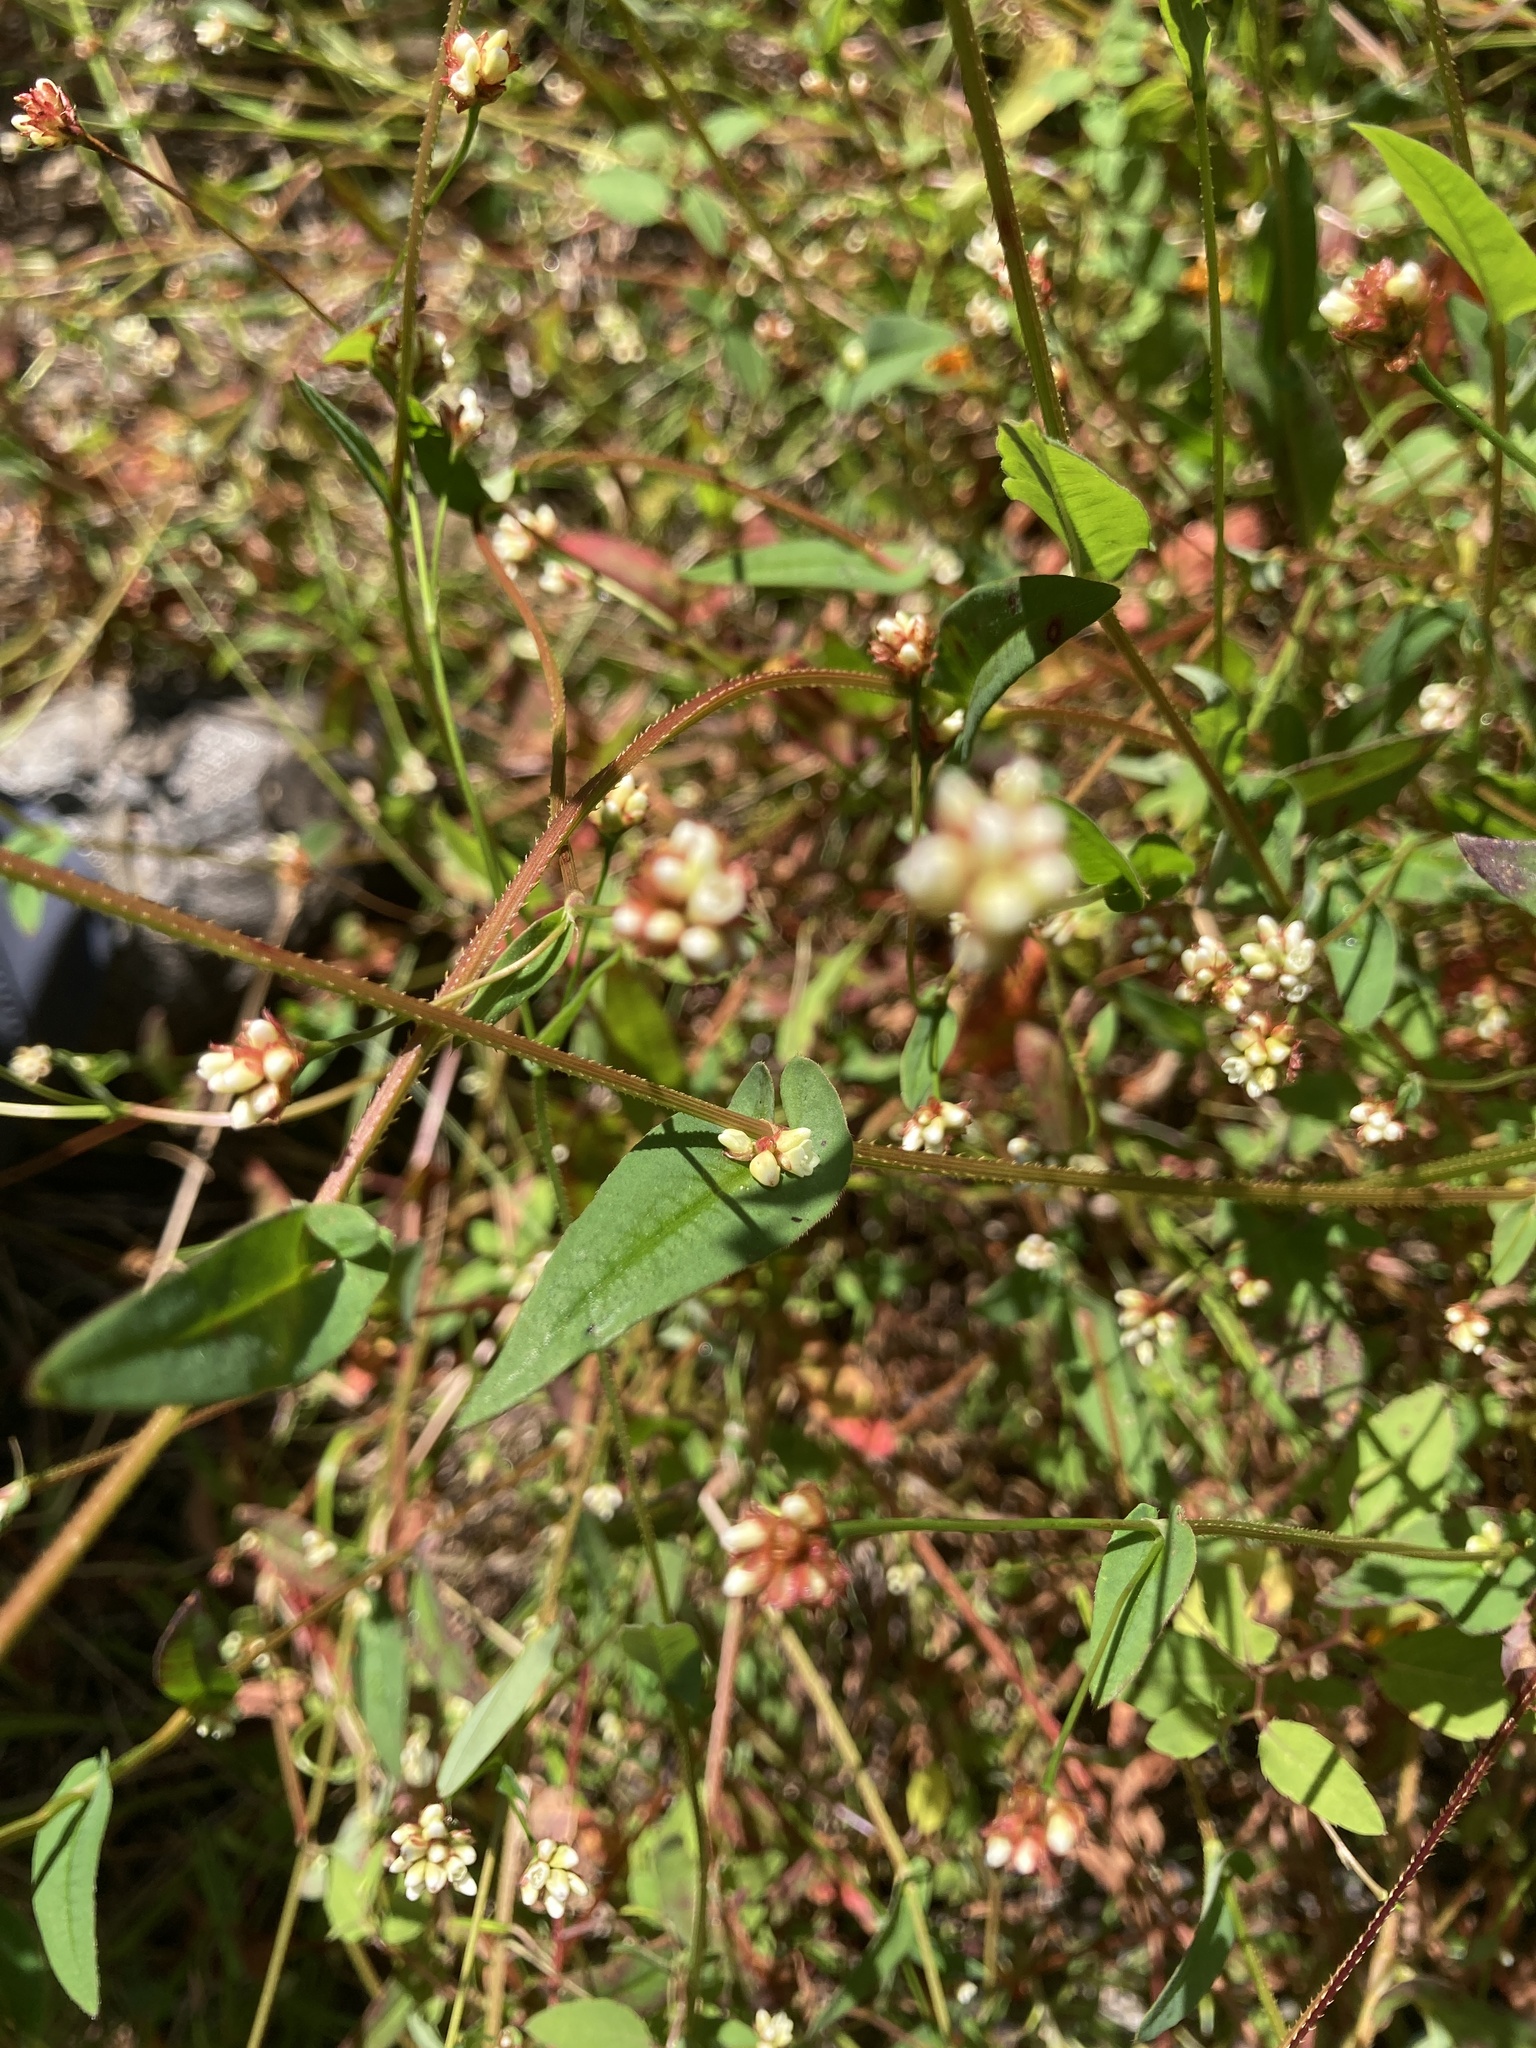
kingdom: Plantae
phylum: Tracheophyta
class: Magnoliopsida
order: Caryophyllales
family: Polygonaceae
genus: Persicaria
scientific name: Persicaria sagittata
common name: American tearthumb
